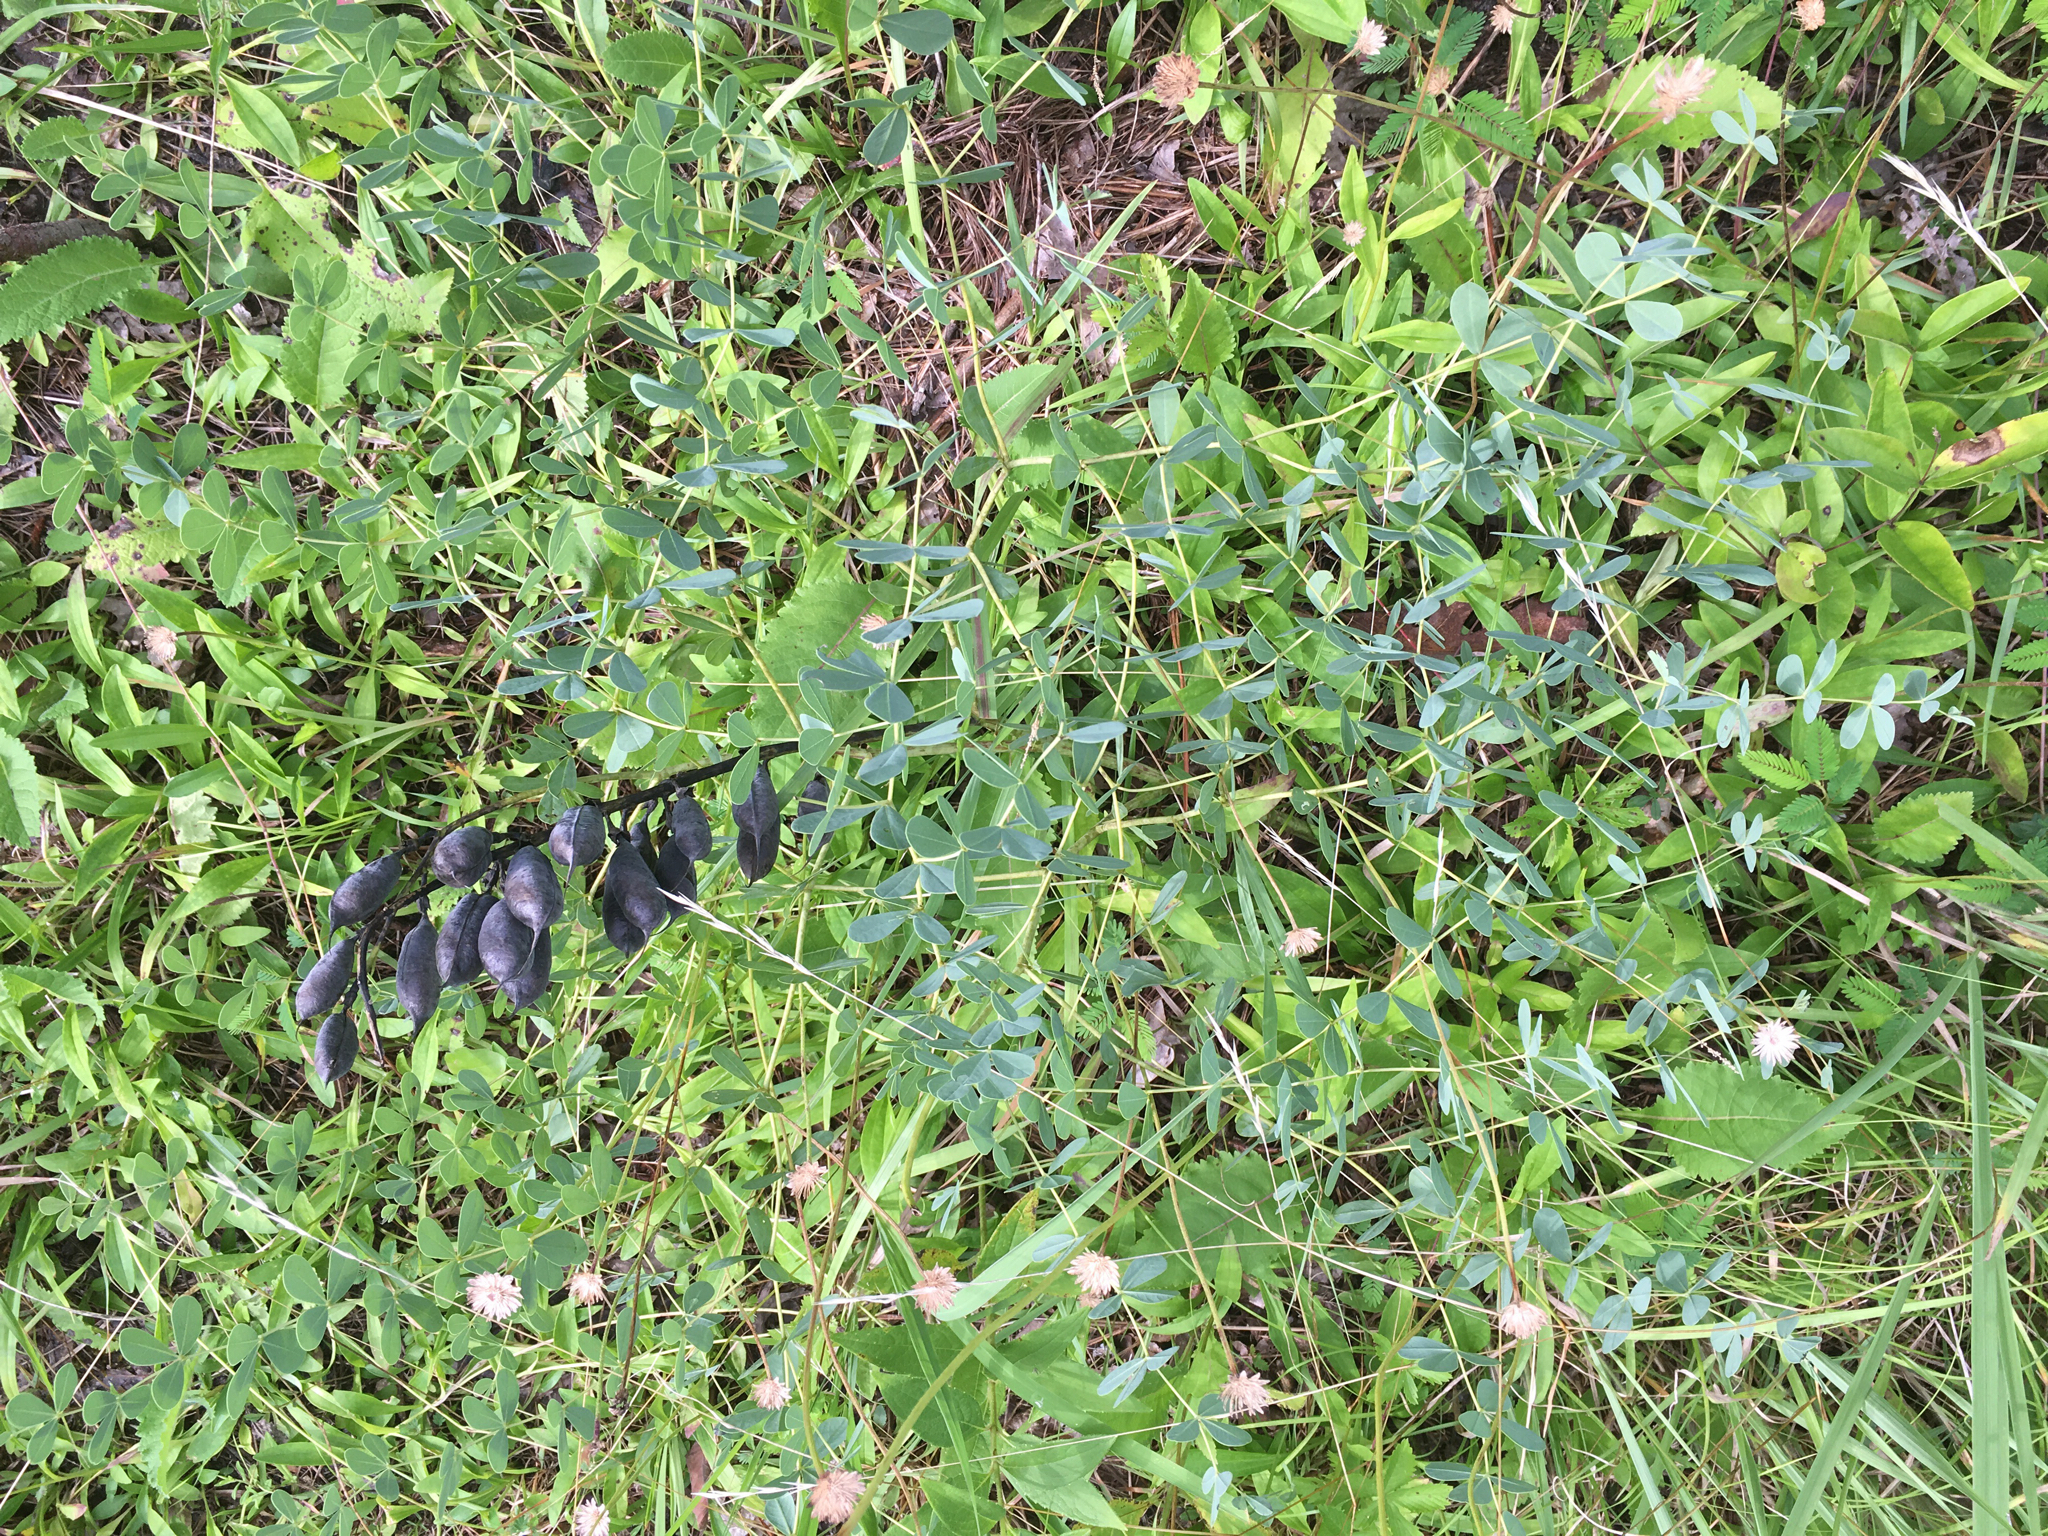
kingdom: Plantae
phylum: Tracheophyta
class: Magnoliopsida
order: Fabales
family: Fabaceae
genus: Baptisia
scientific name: Baptisia aberrans
